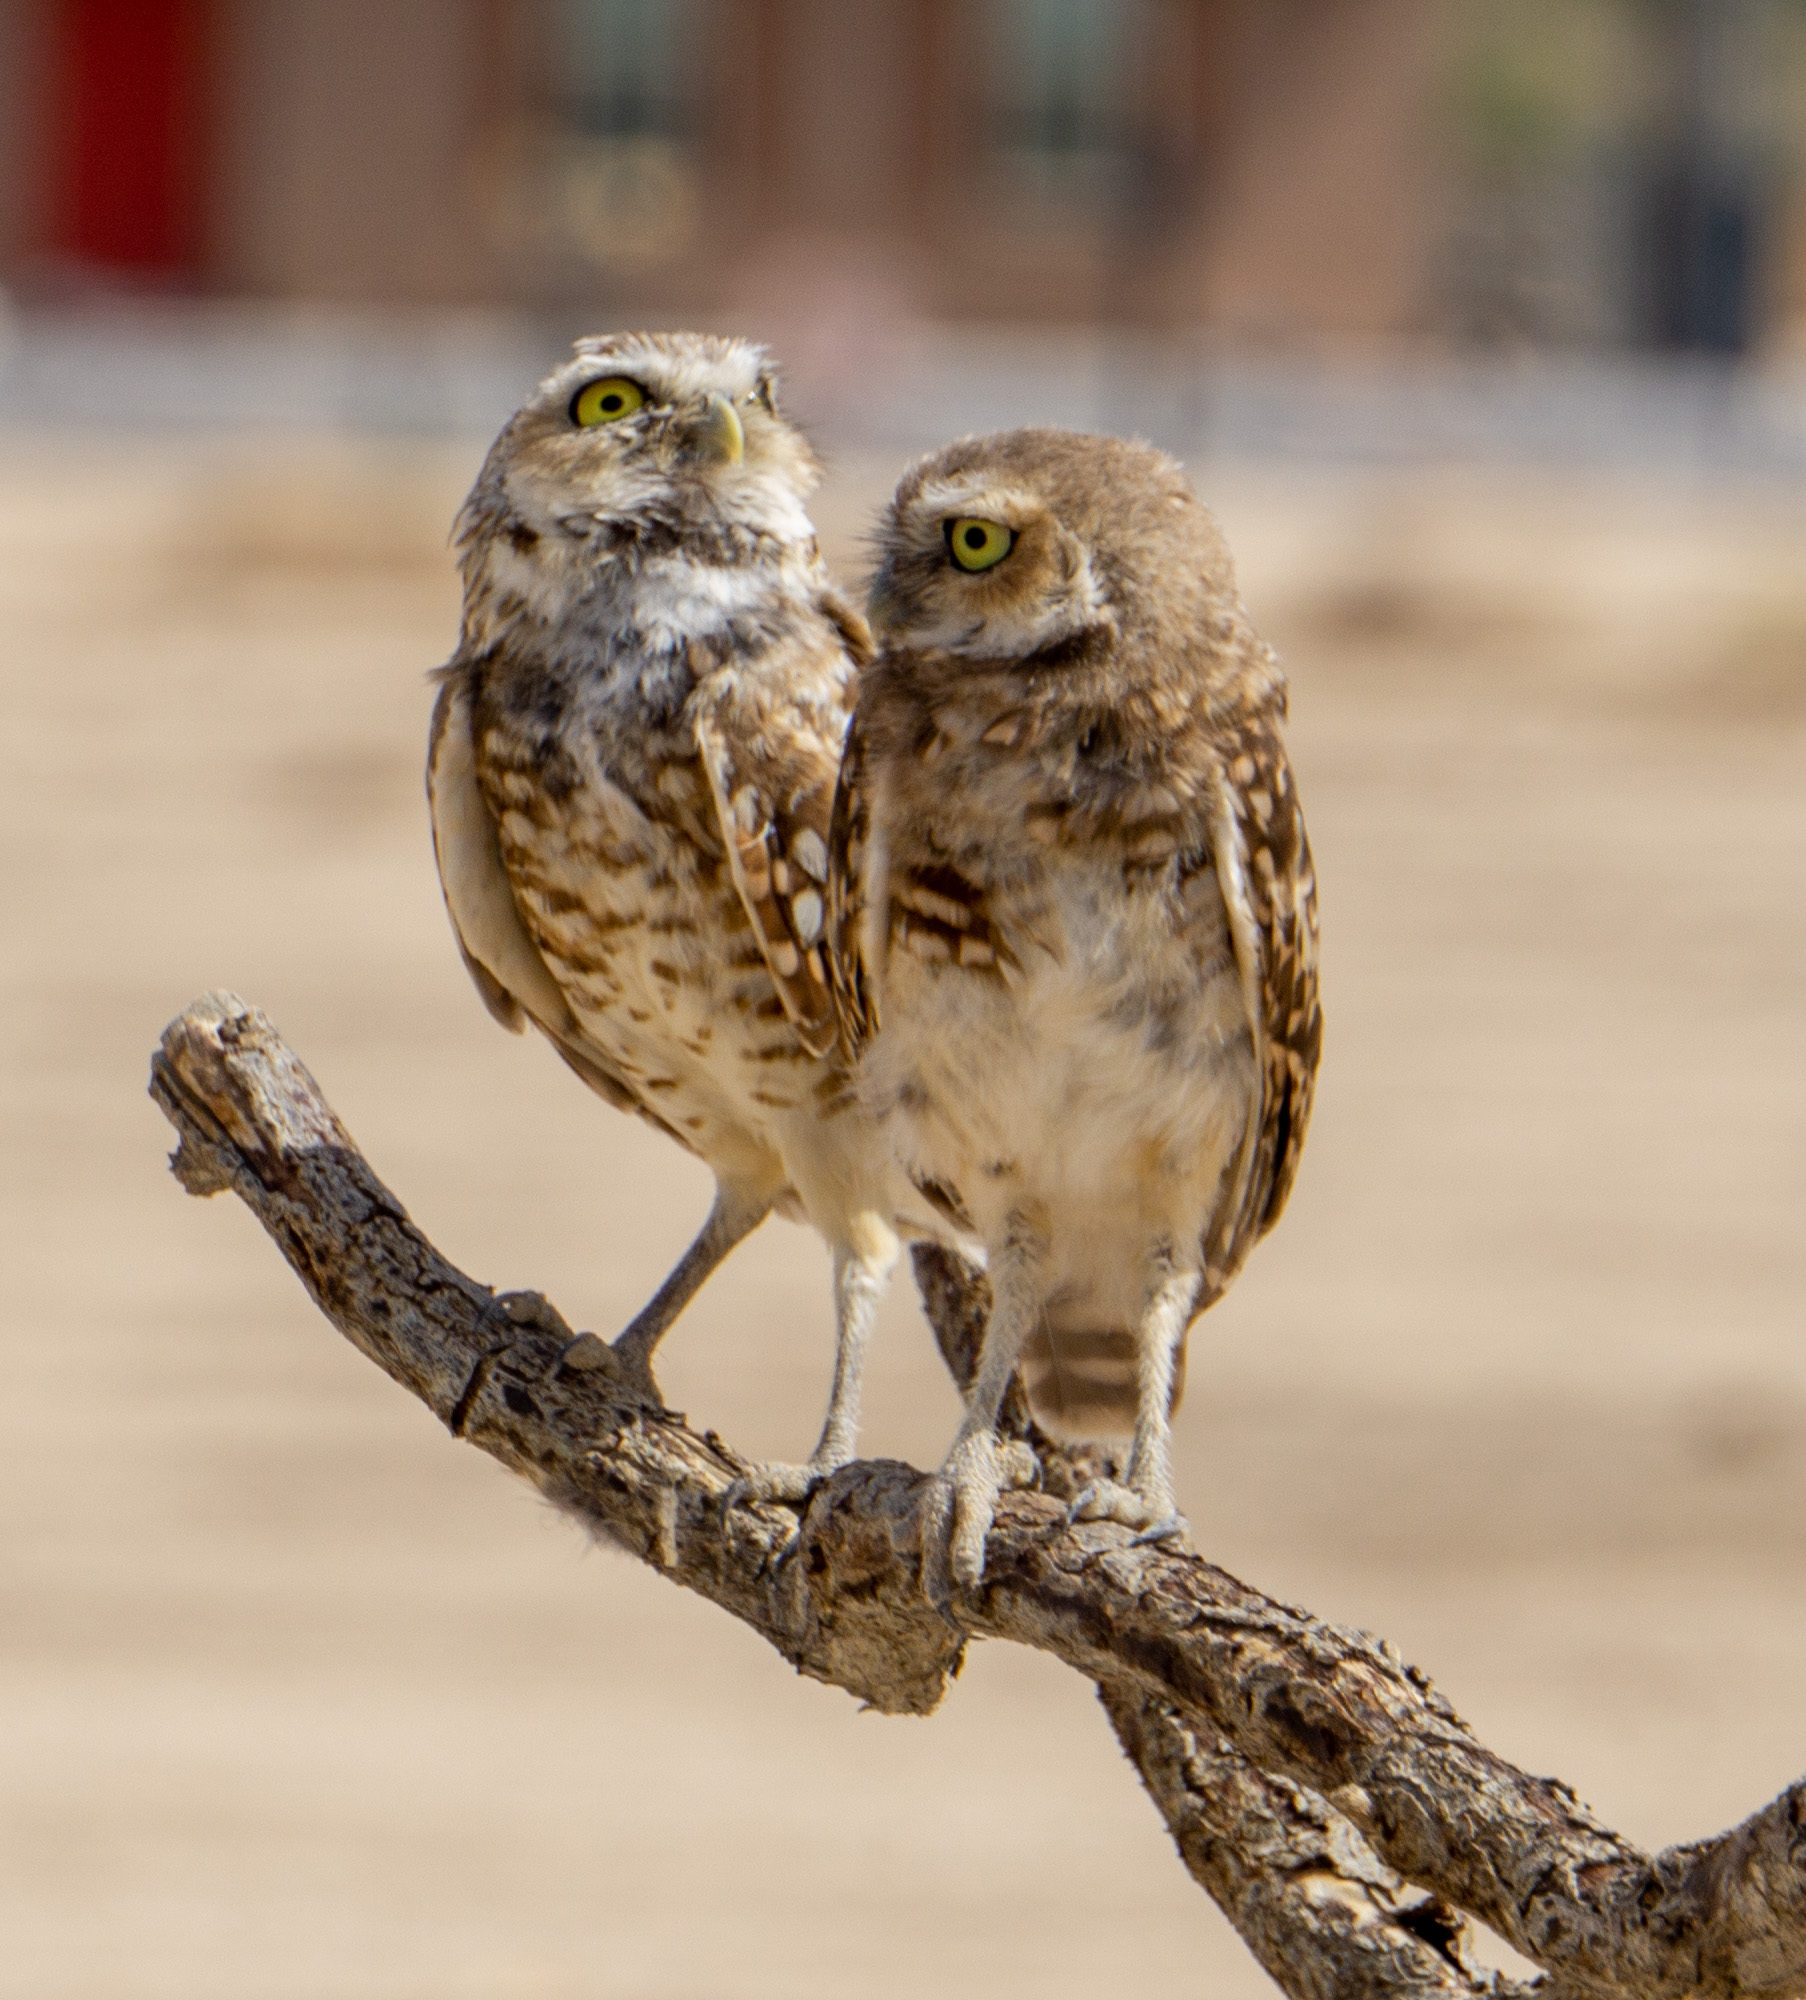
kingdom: Animalia
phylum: Chordata
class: Aves
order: Strigiformes
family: Strigidae
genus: Athene
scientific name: Athene cunicularia
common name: Burrowing owl
